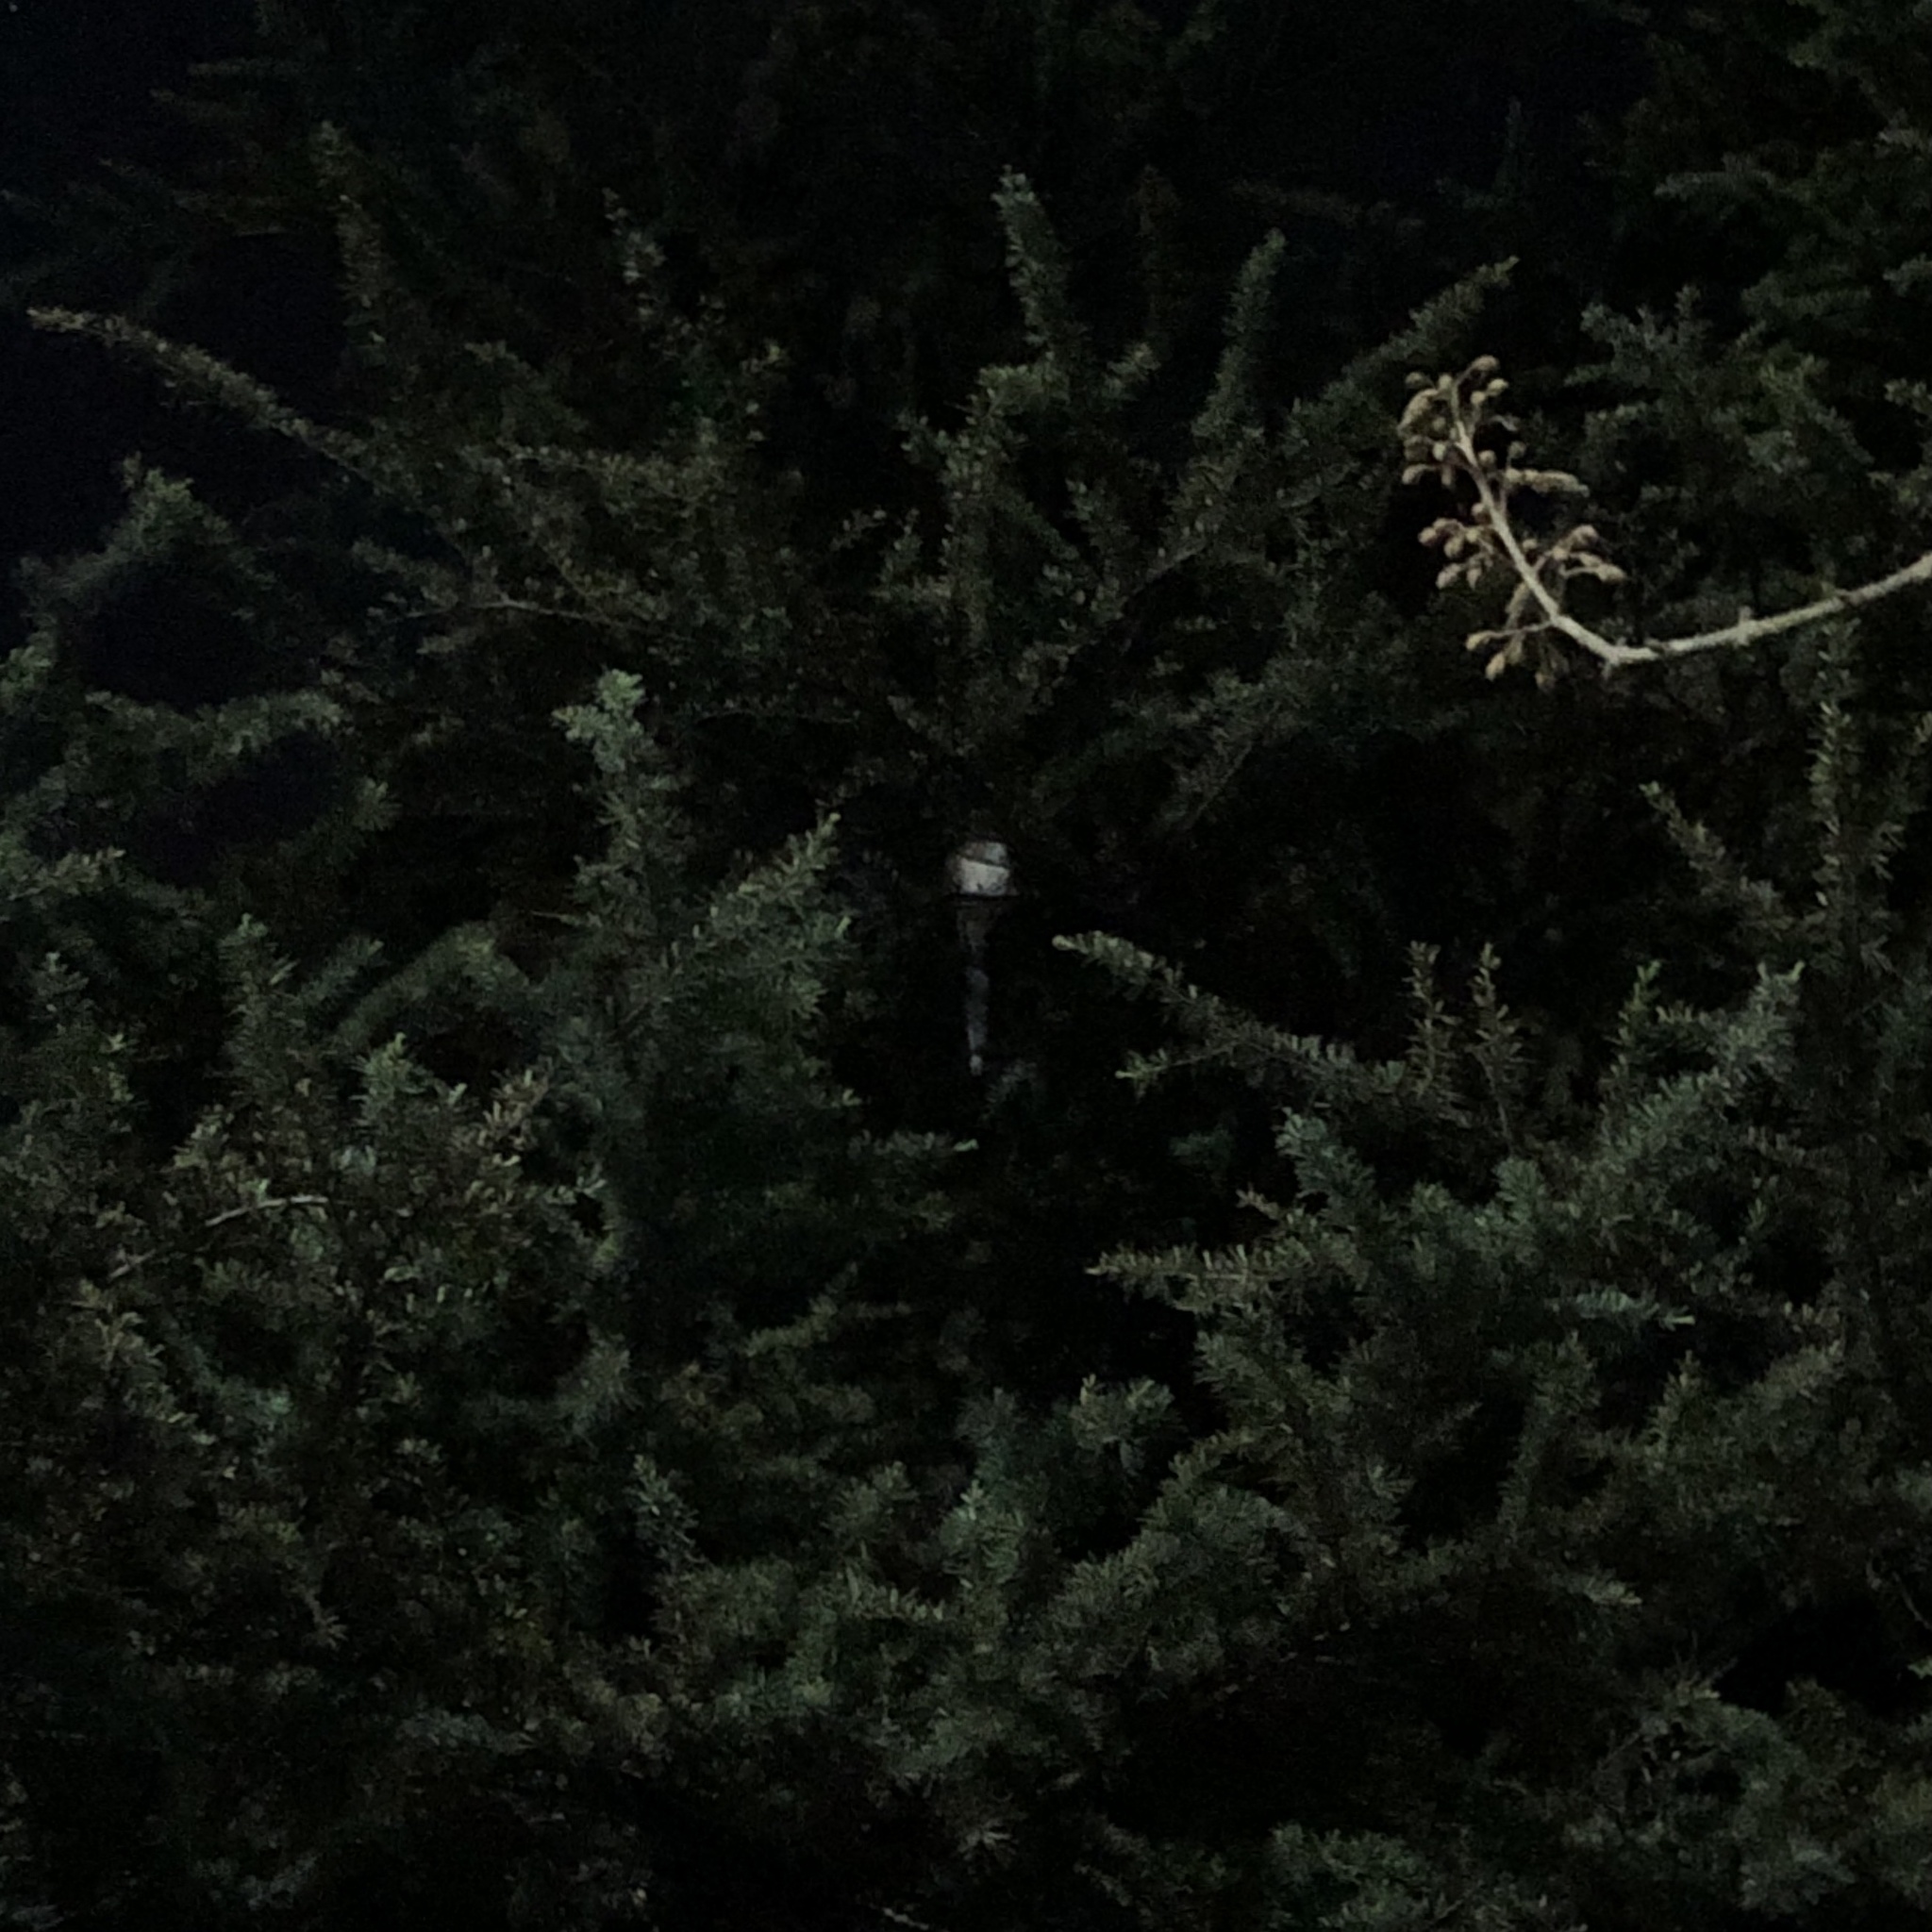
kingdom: Animalia
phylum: Chordata
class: Aves
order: Passeriformes
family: Corvidae
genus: Cyanopica
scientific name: Cyanopica cyanus
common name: Azure-winged magpie
